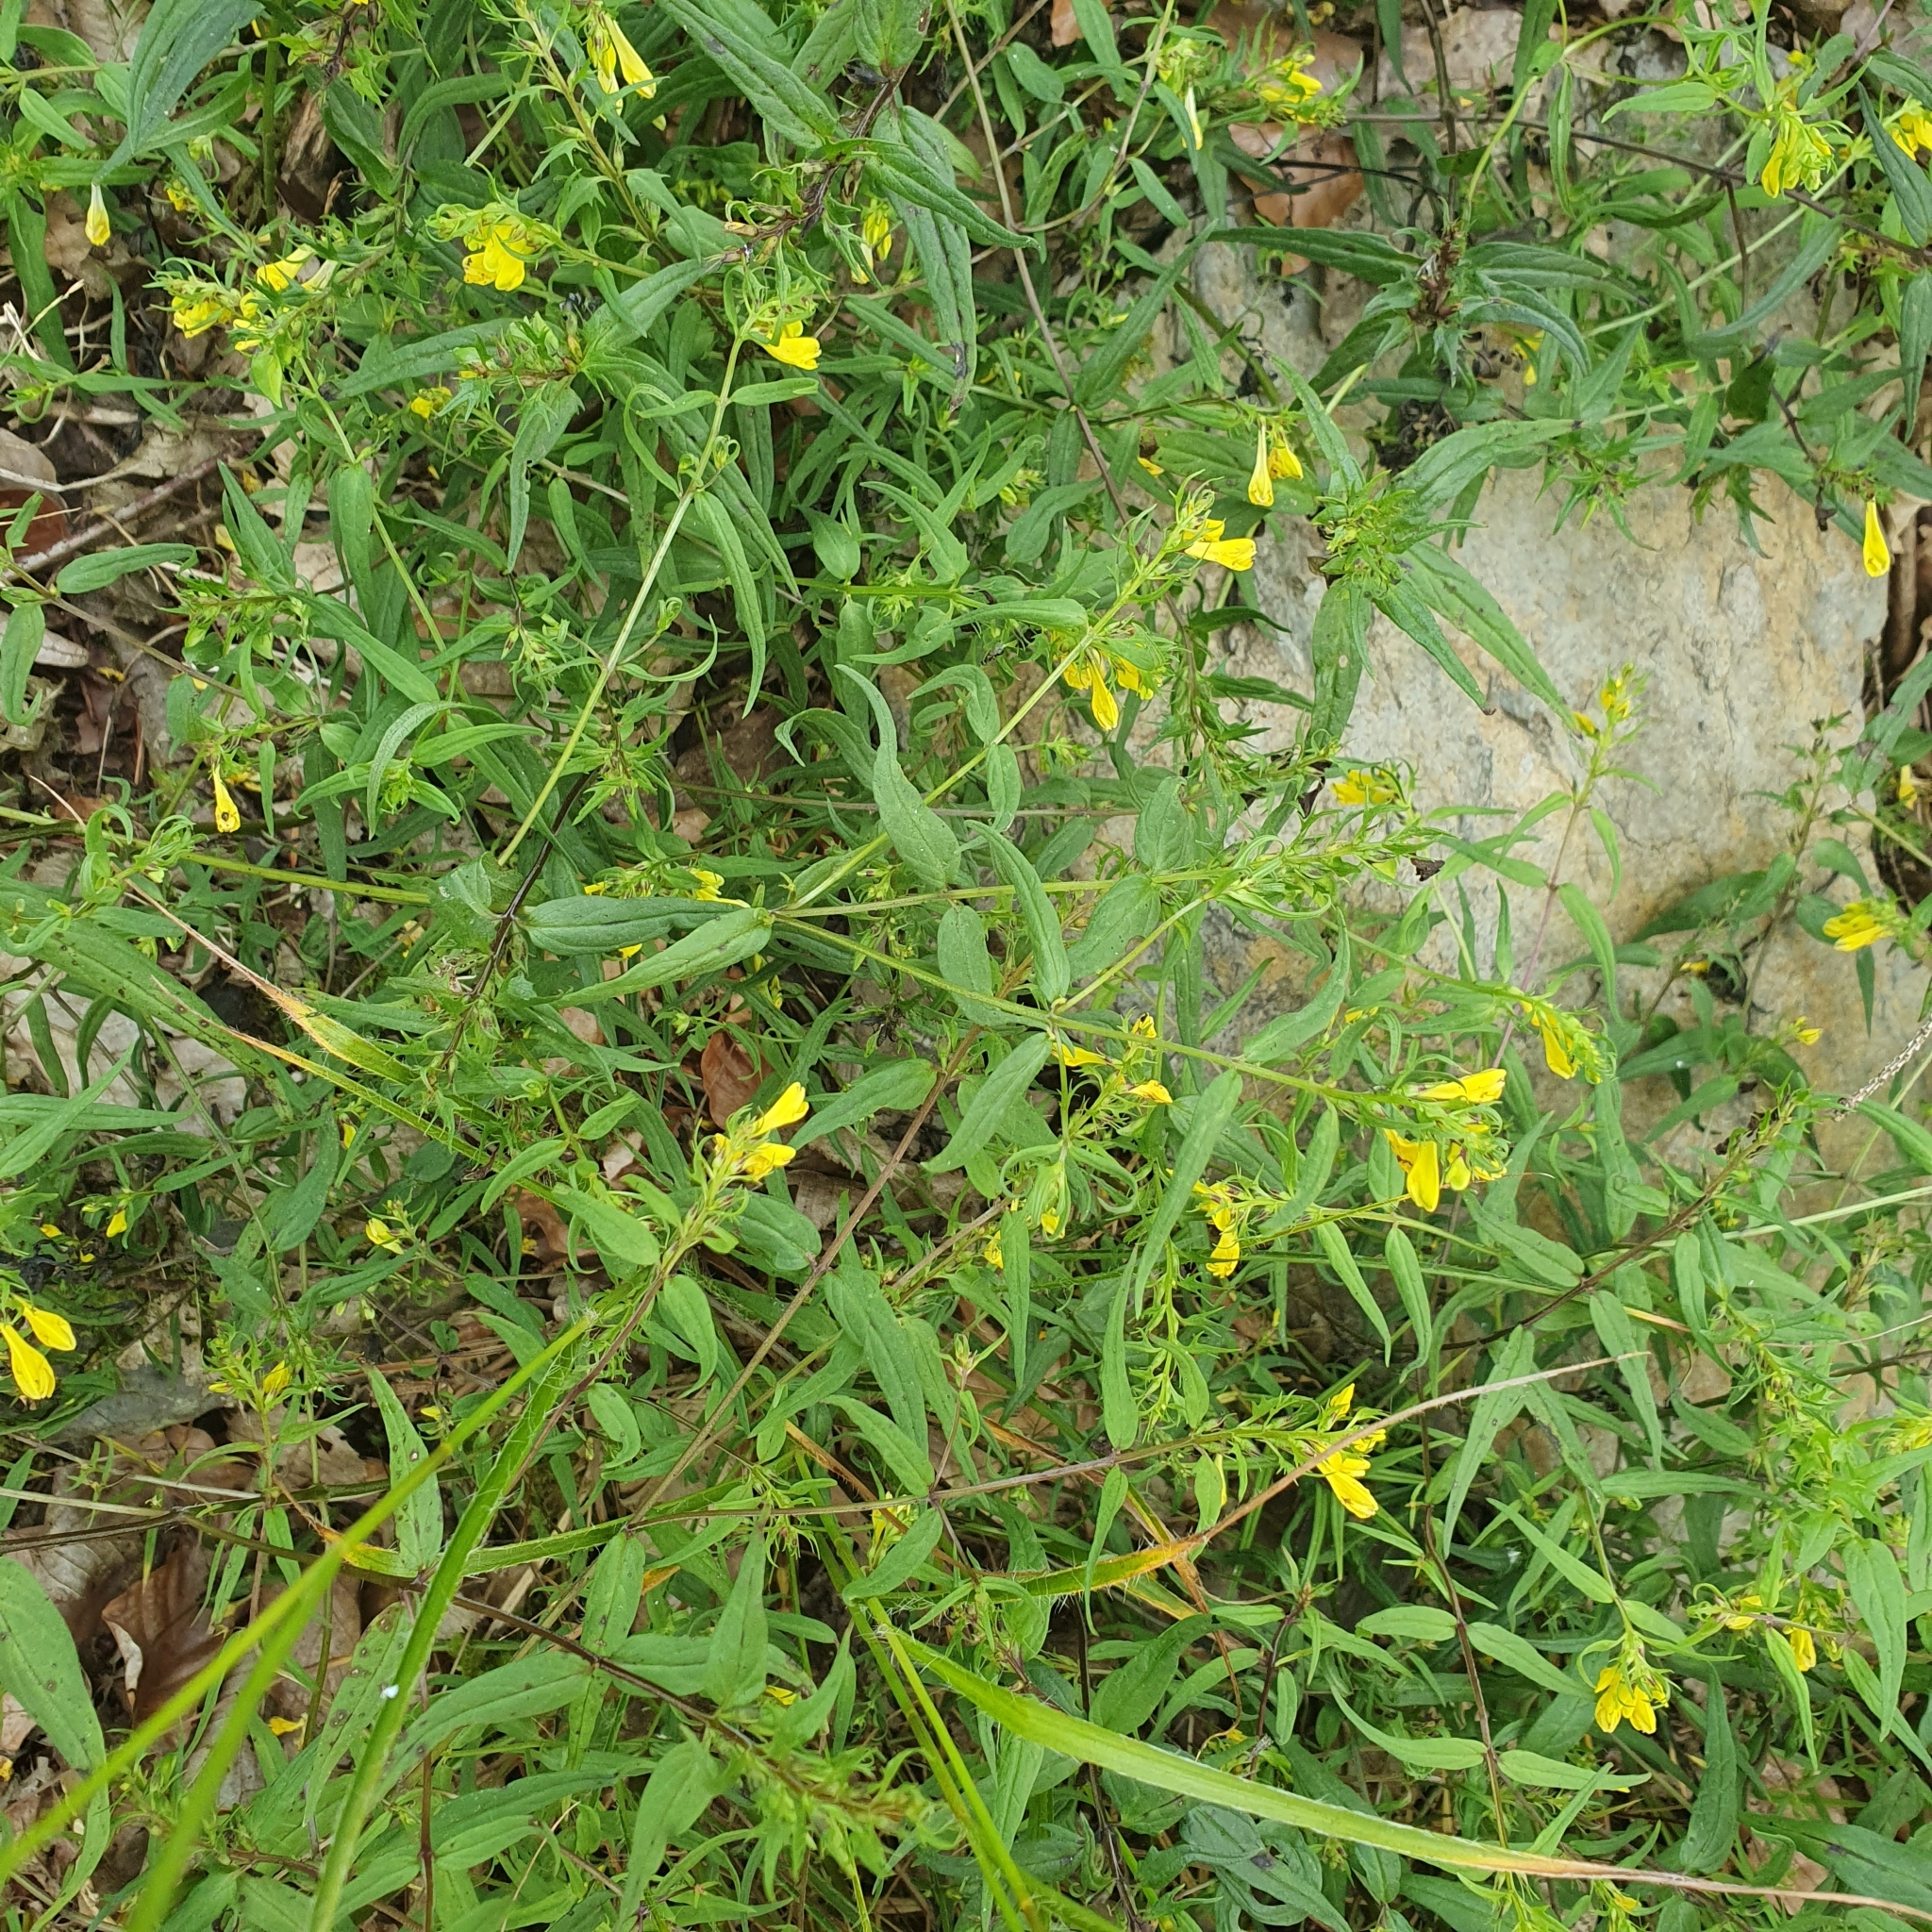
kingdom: Plantae
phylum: Tracheophyta
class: Magnoliopsida
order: Lamiales
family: Orobanchaceae
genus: Melampyrum
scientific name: Melampyrum pratense
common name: Common cow-wheat
